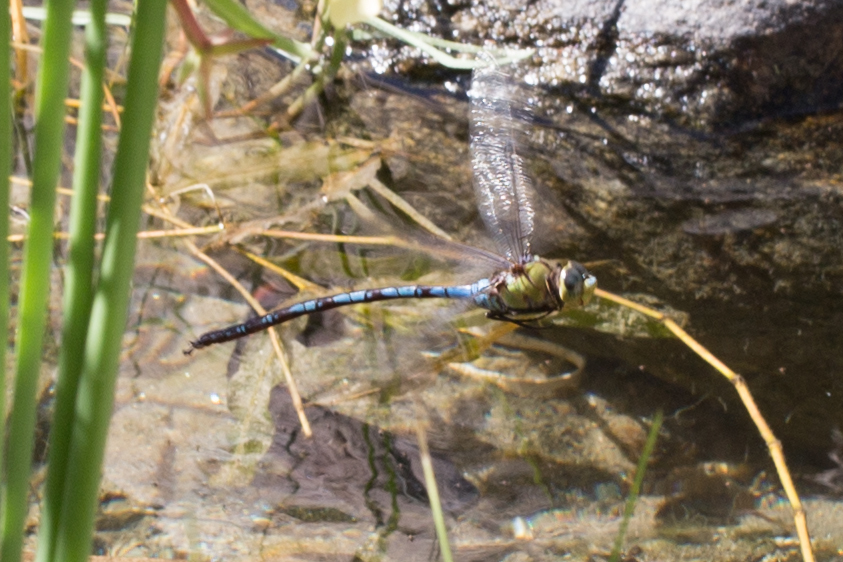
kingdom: Animalia
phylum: Arthropoda
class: Insecta
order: Odonata
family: Aeshnidae
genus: Anax
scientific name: Anax walsinghami
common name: Giant darner
